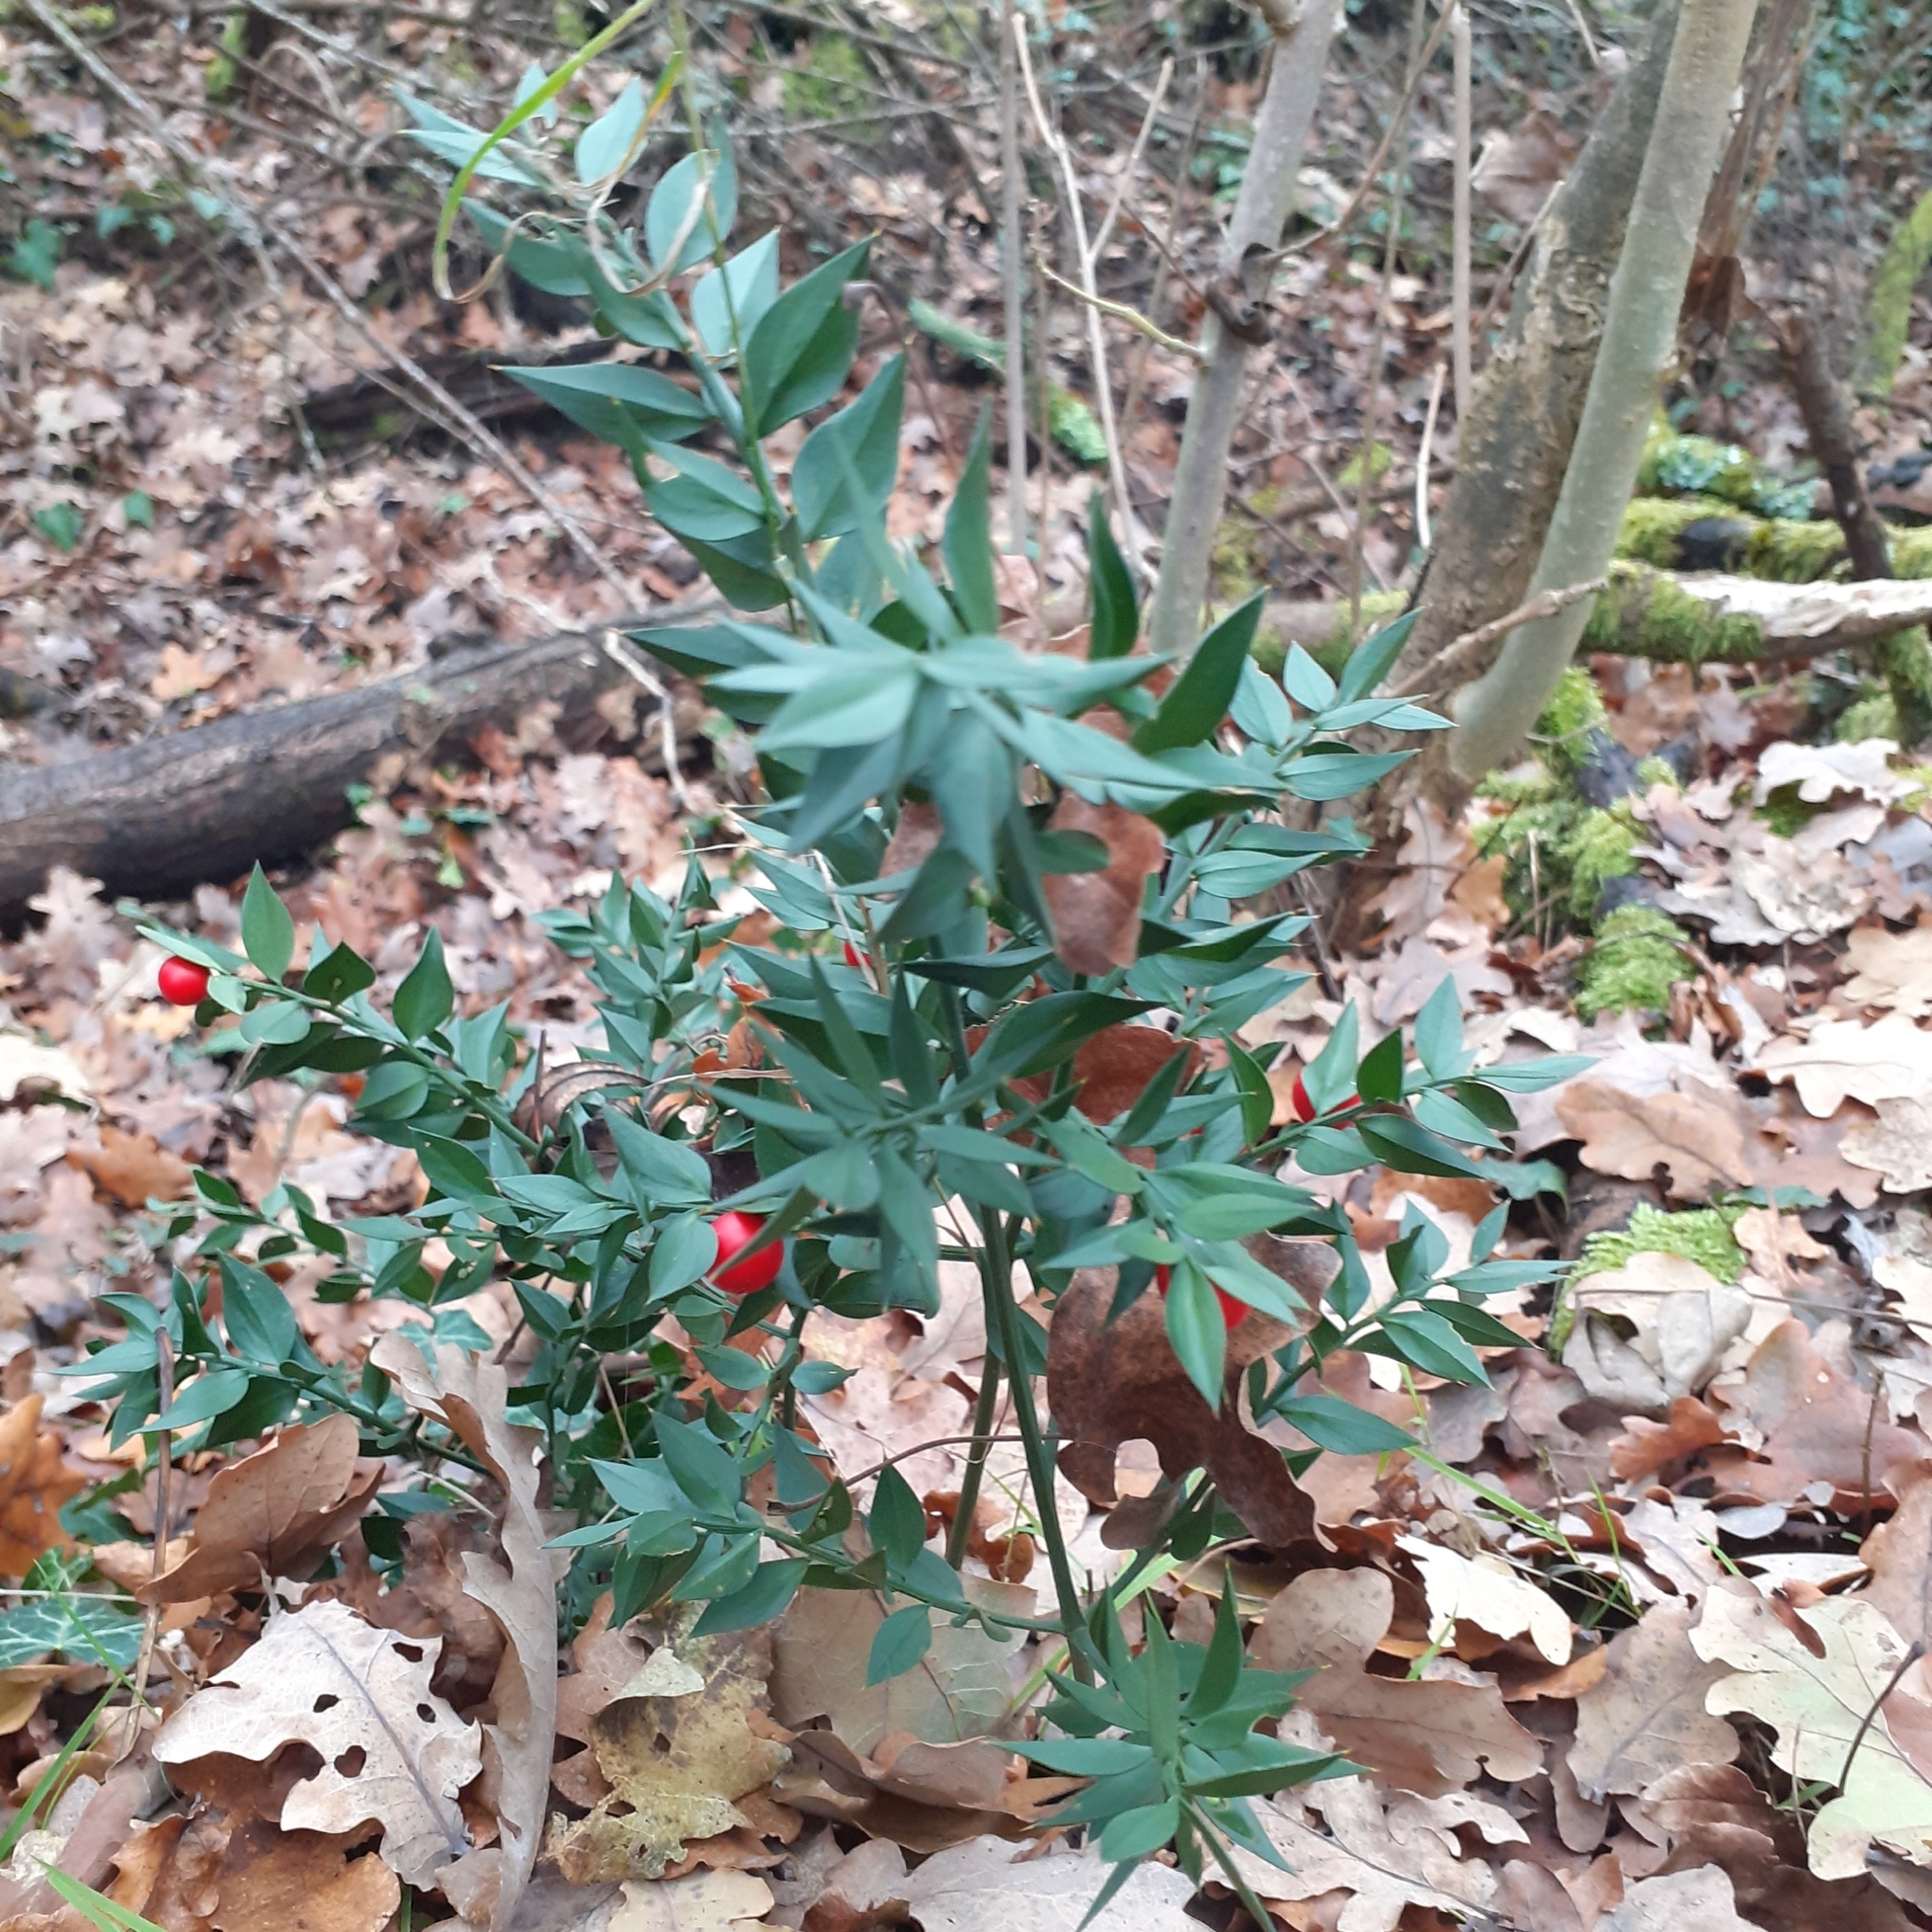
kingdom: Plantae
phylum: Tracheophyta
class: Liliopsida
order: Asparagales
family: Asparagaceae
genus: Ruscus
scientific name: Ruscus aculeatus
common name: Butcher's-broom
